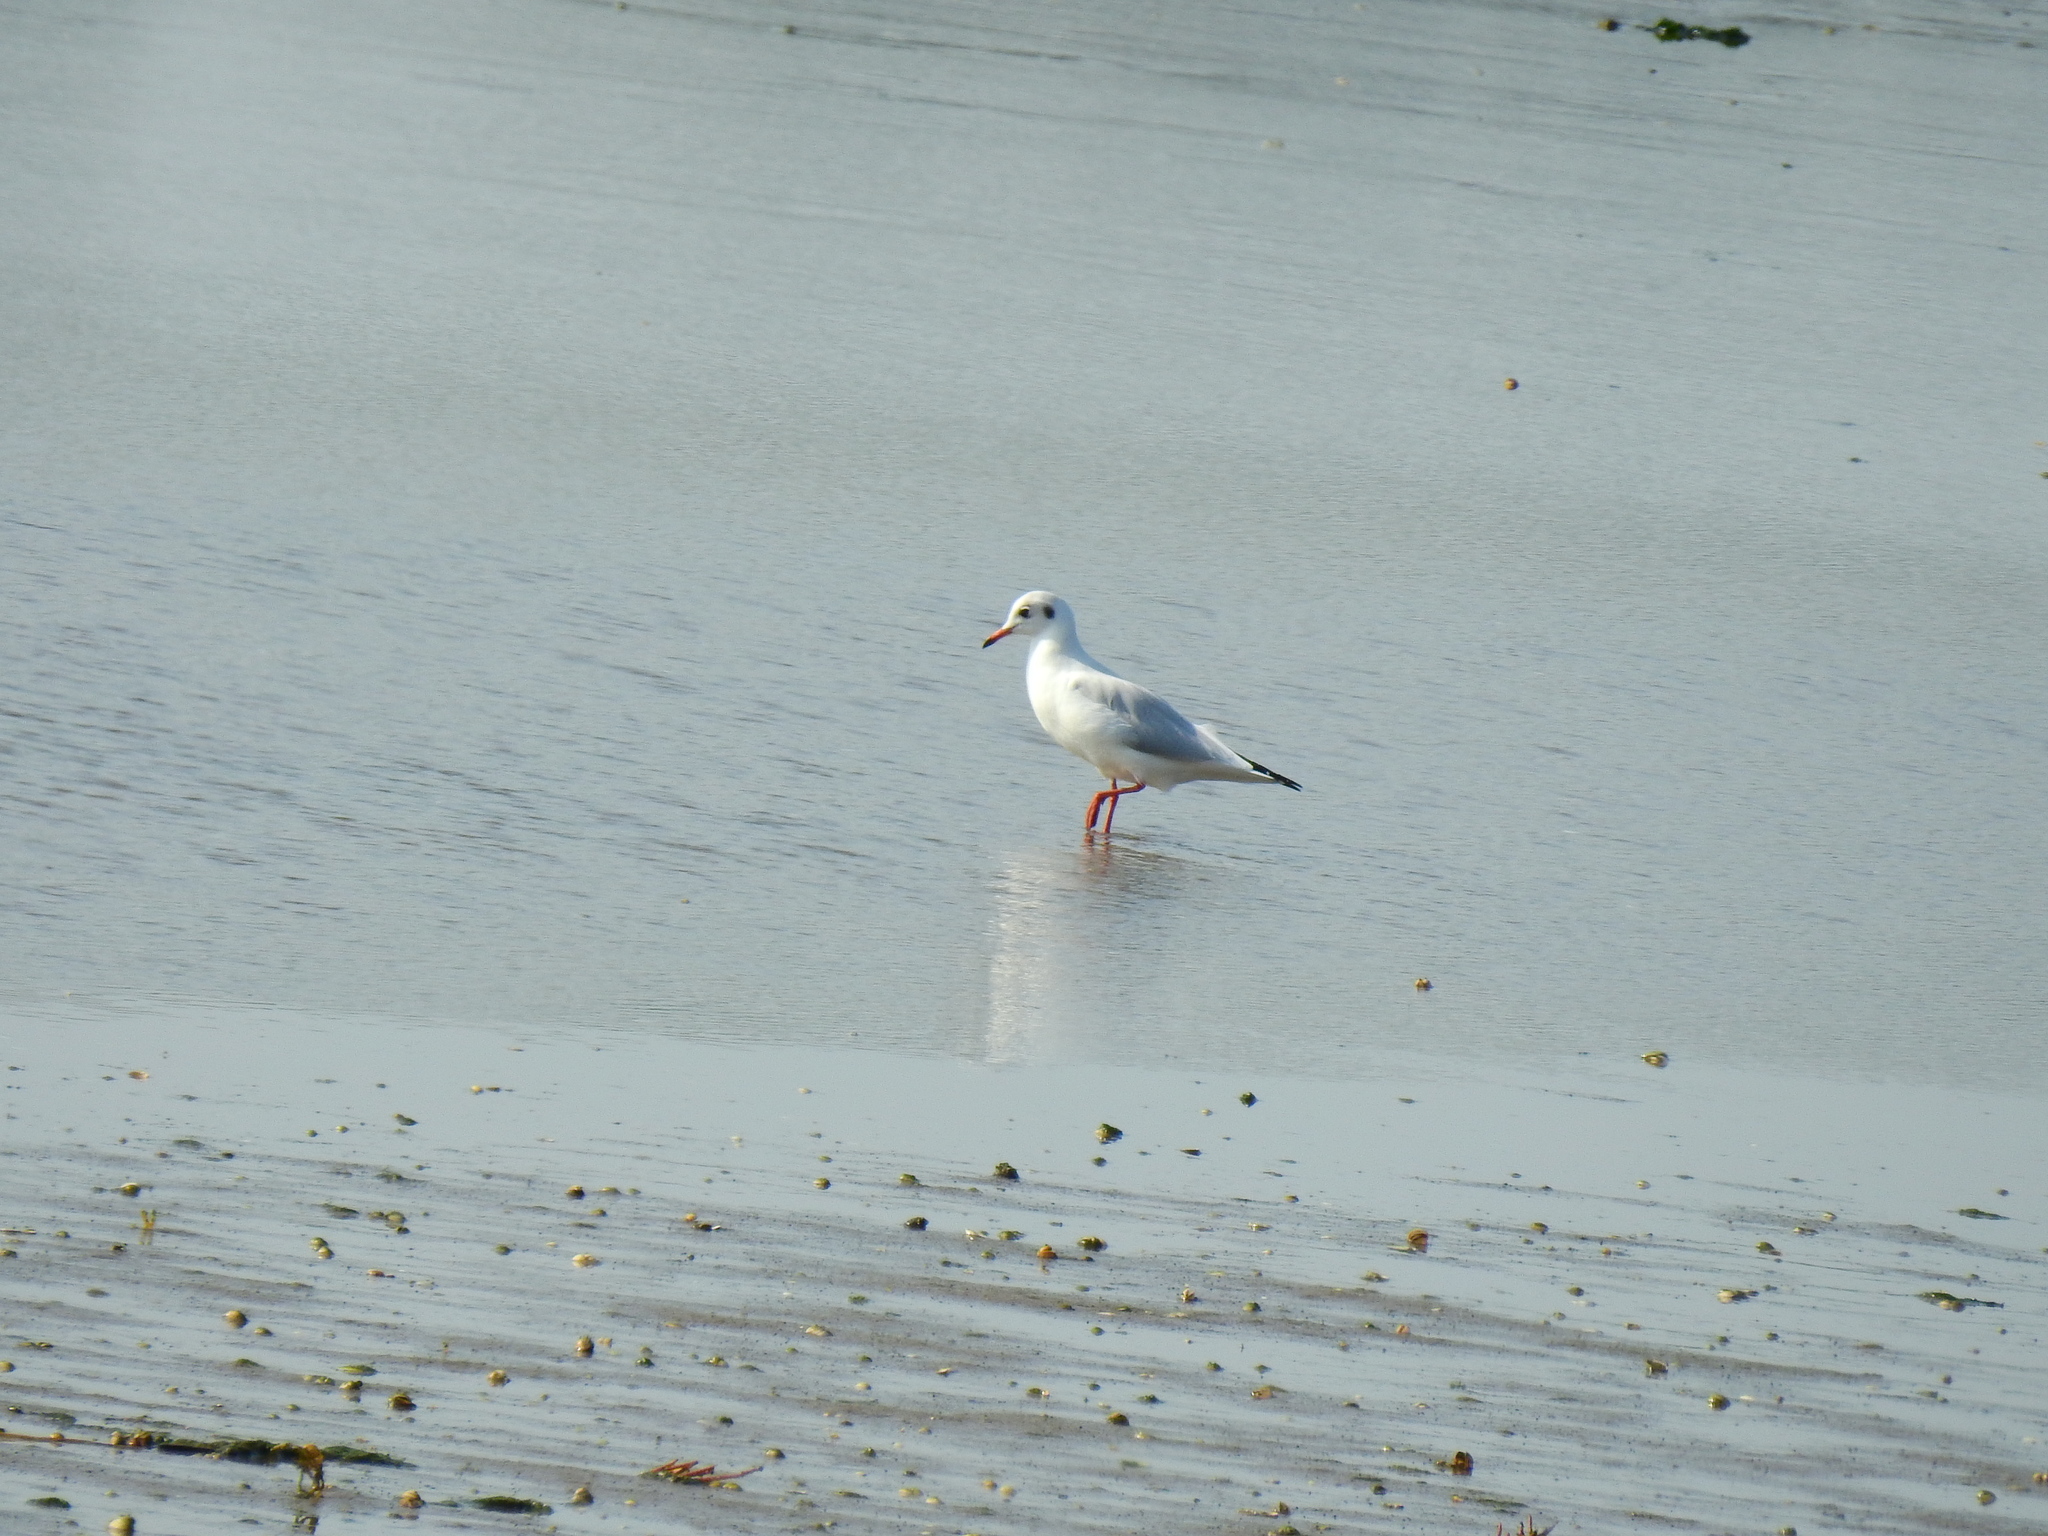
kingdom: Animalia
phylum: Chordata
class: Aves
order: Charadriiformes
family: Laridae
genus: Chroicocephalus
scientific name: Chroicocephalus ridibundus
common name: Black-headed gull
